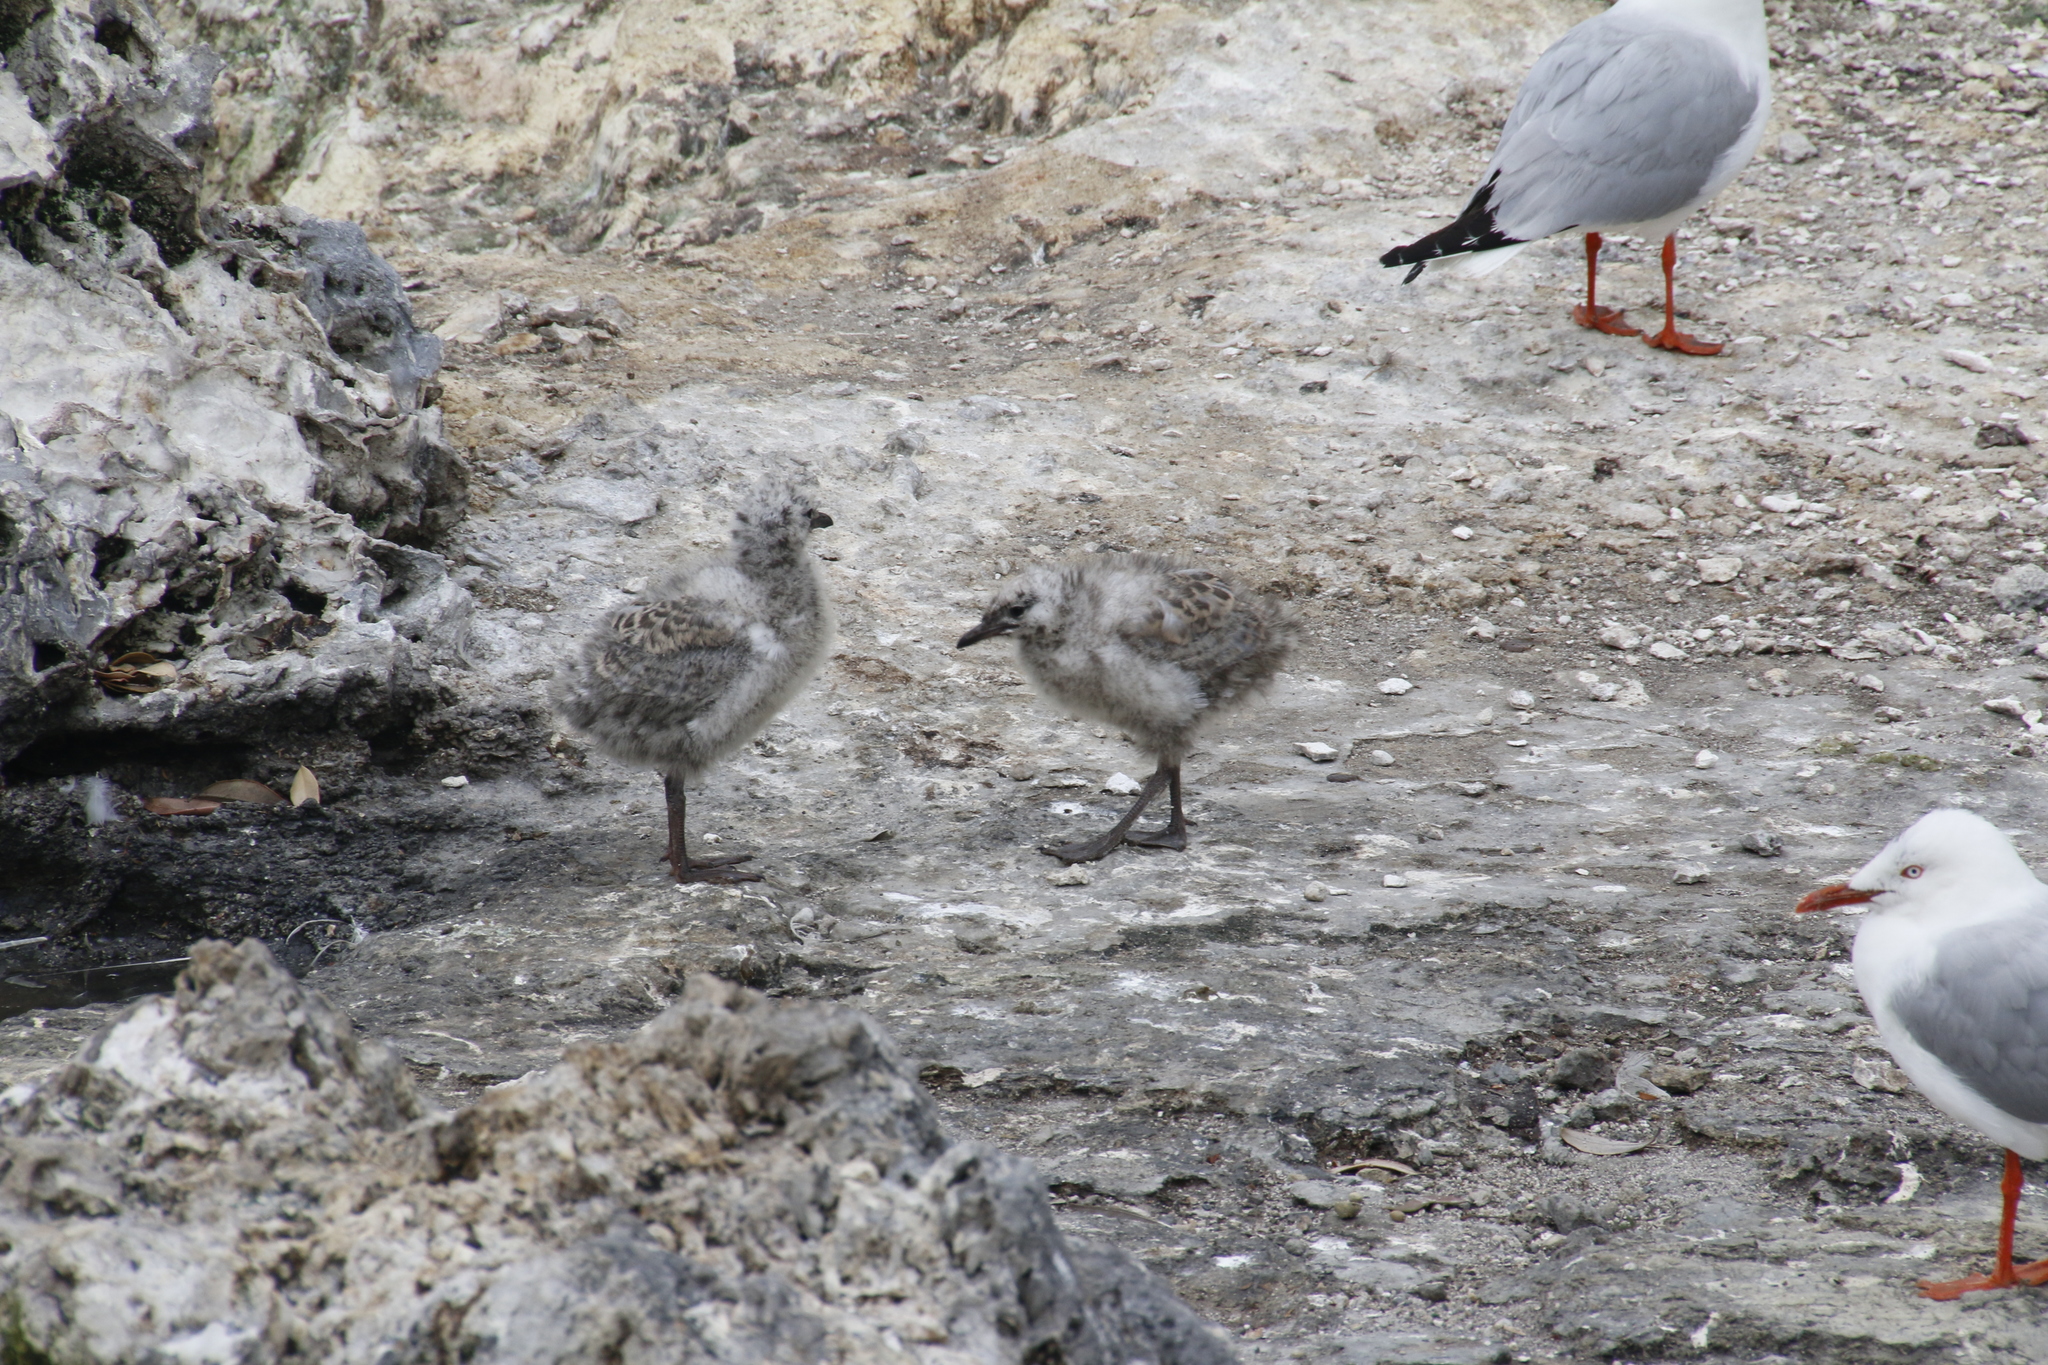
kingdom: Animalia
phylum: Chordata
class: Aves
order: Charadriiformes
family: Laridae
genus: Chroicocephalus
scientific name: Chroicocephalus novaehollandiae
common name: Silver gull
